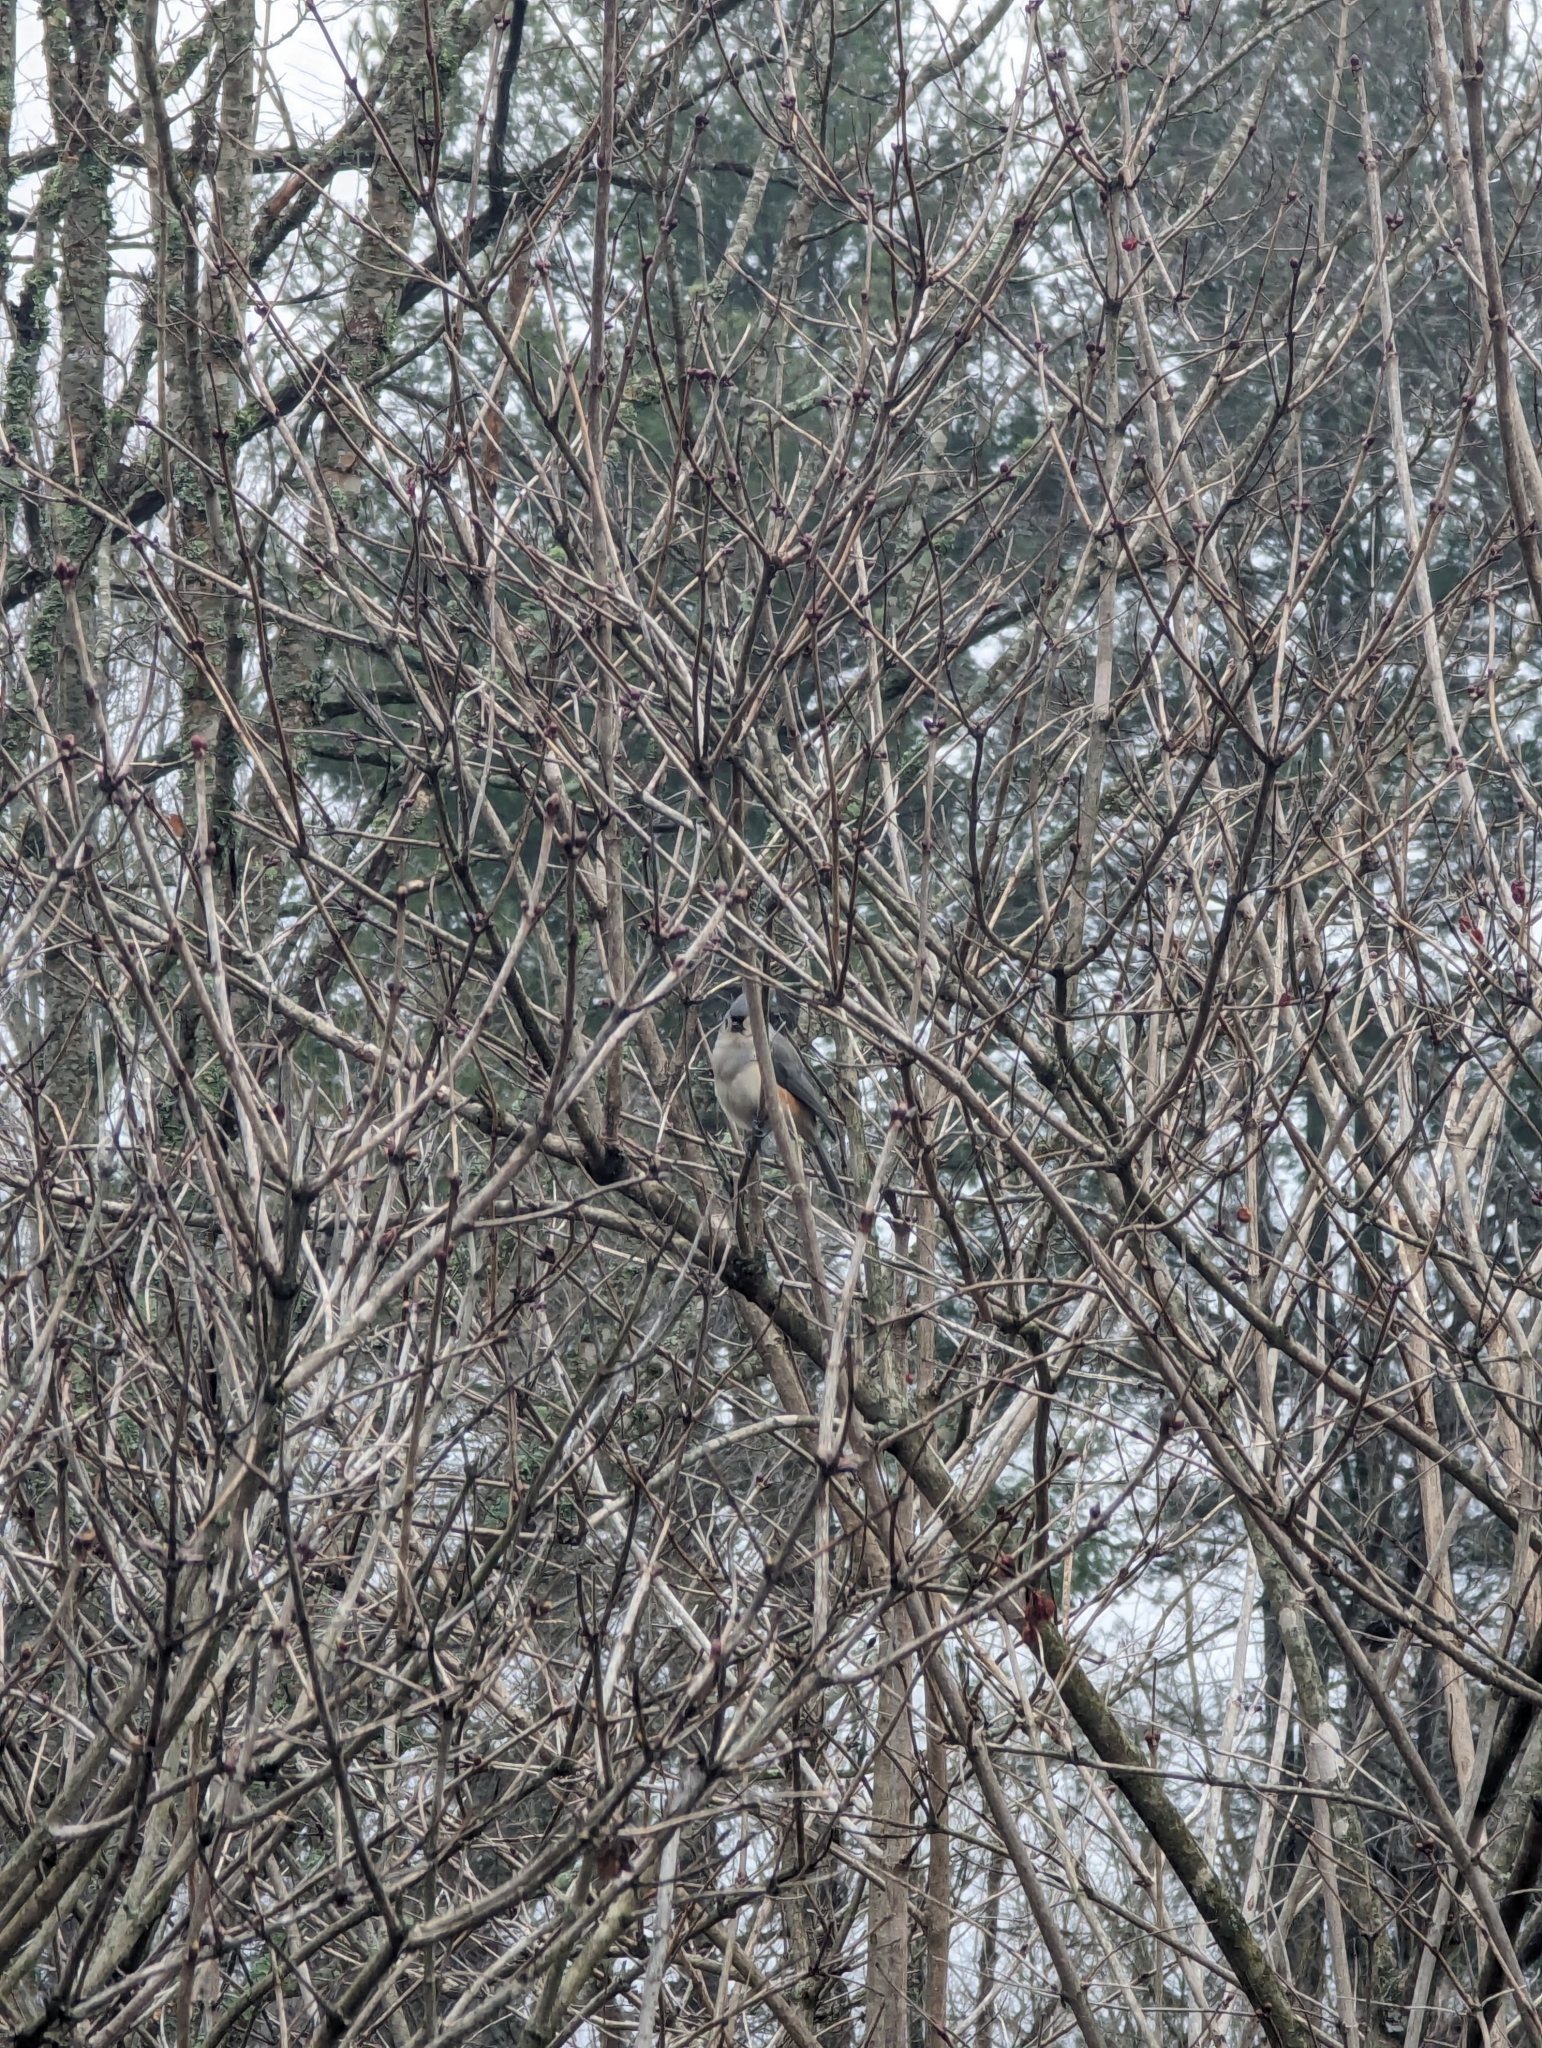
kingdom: Animalia
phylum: Chordata
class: Aves
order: Passeriformes
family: Paridae
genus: Baeolophus
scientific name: Baeolophus bicolor
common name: Tufted titmouse
